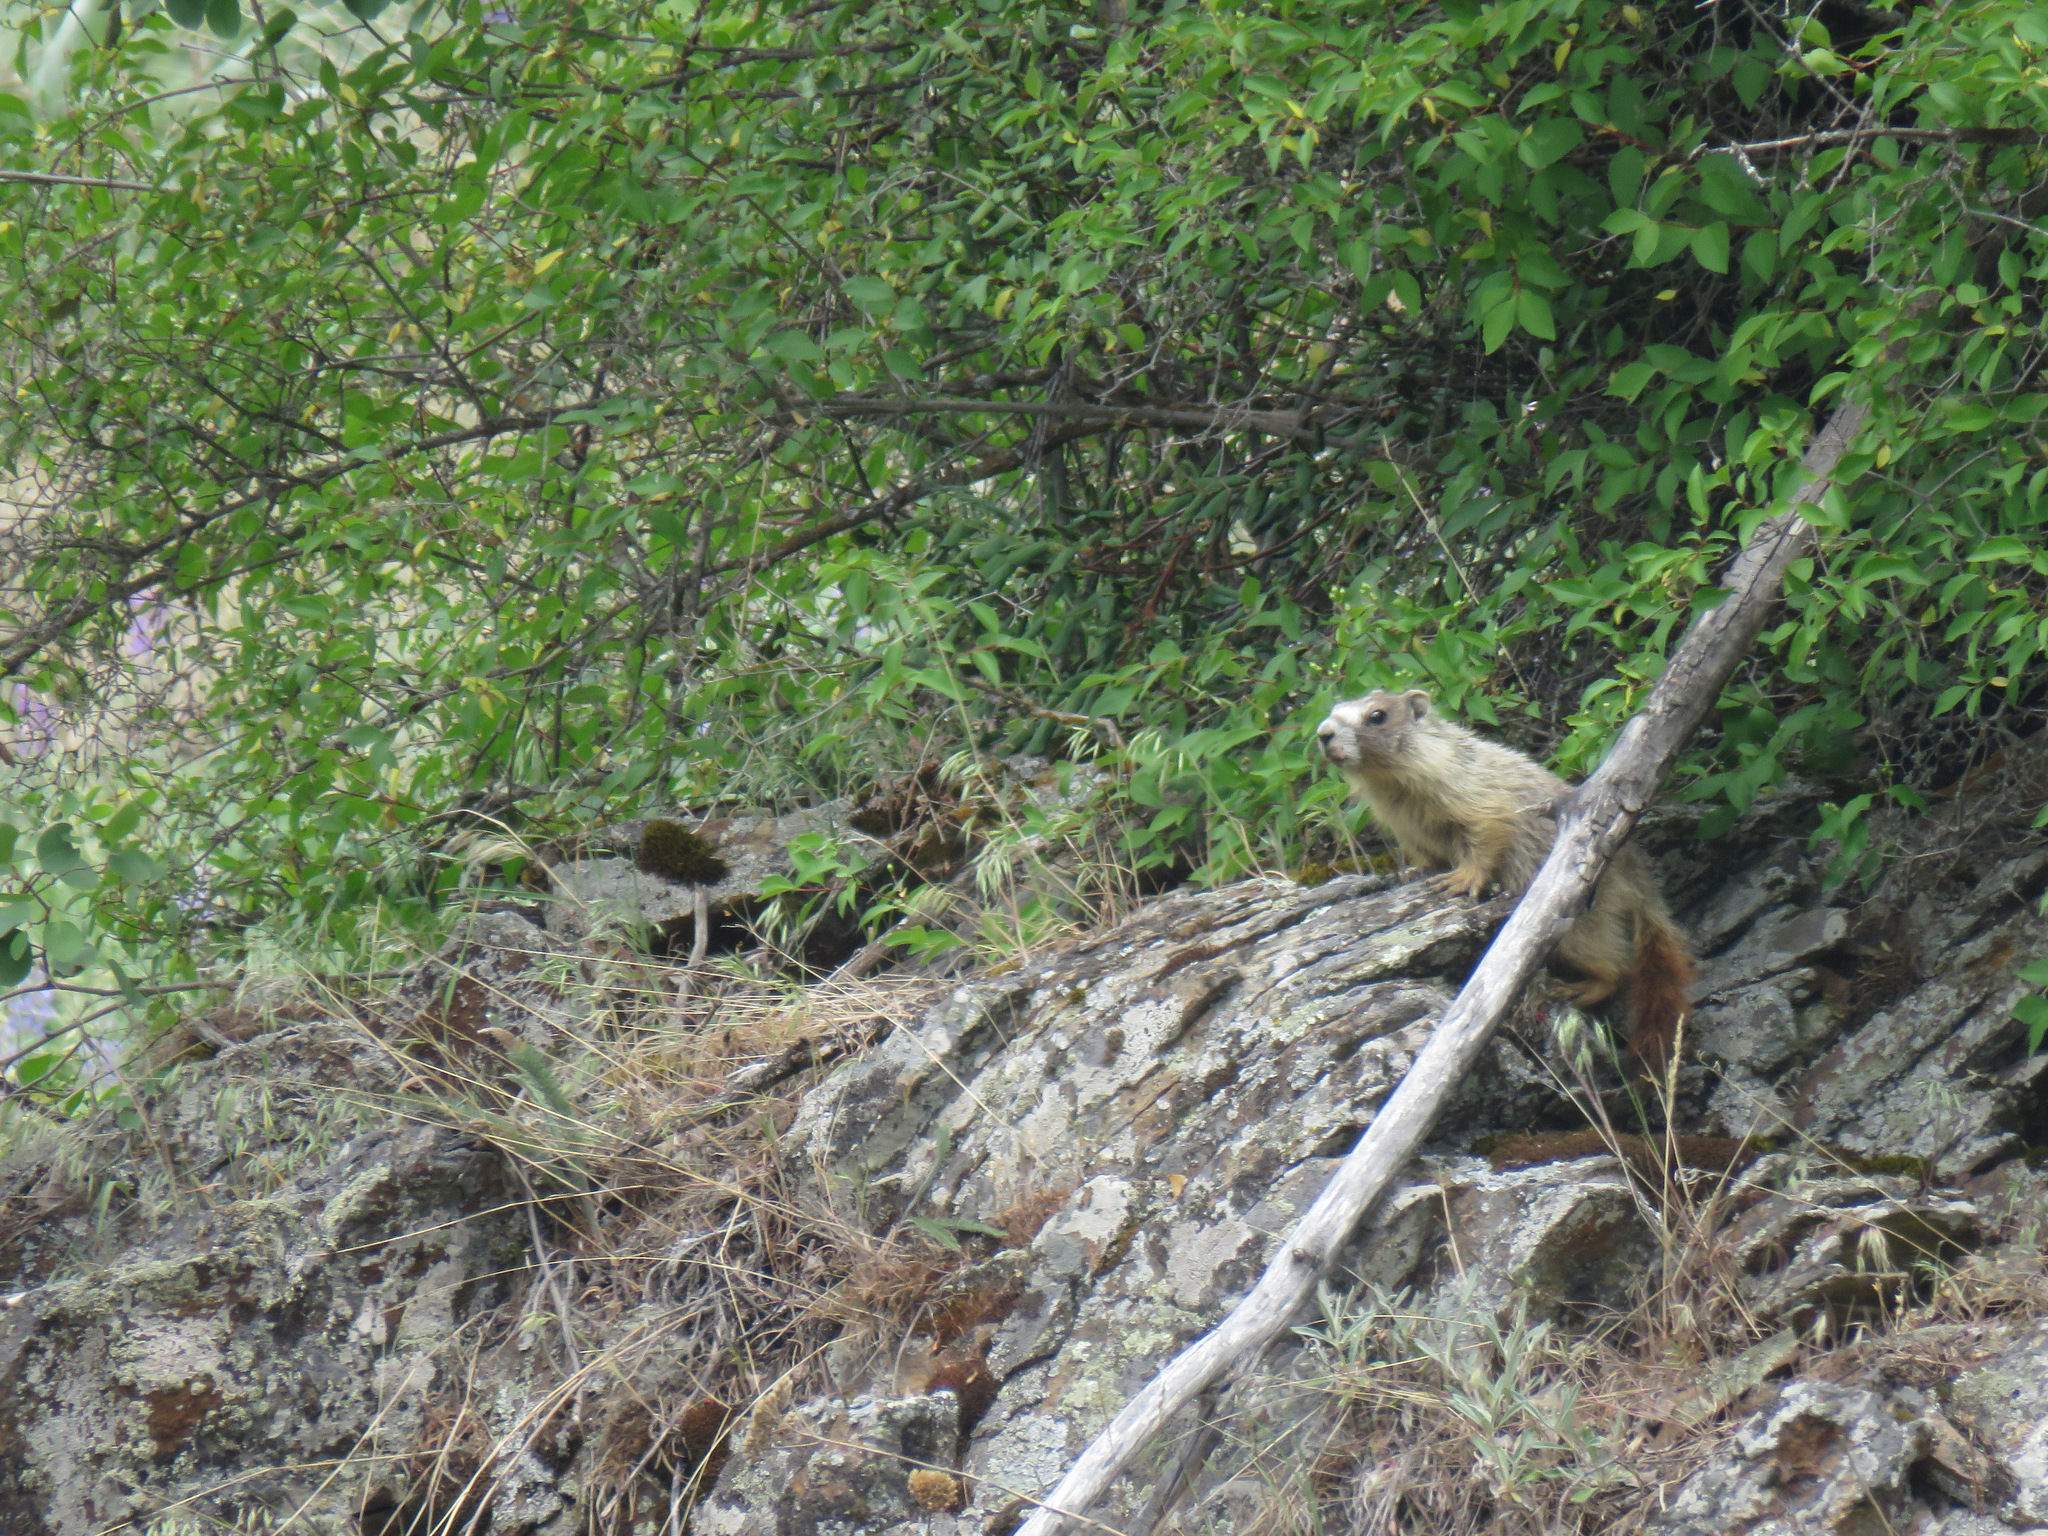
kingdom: Animalia
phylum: Chordata
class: Mammalia
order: Rodentia
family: Sciuridae
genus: Marmota
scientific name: Marmota flaviventris
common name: Yellow-bellied marmot
